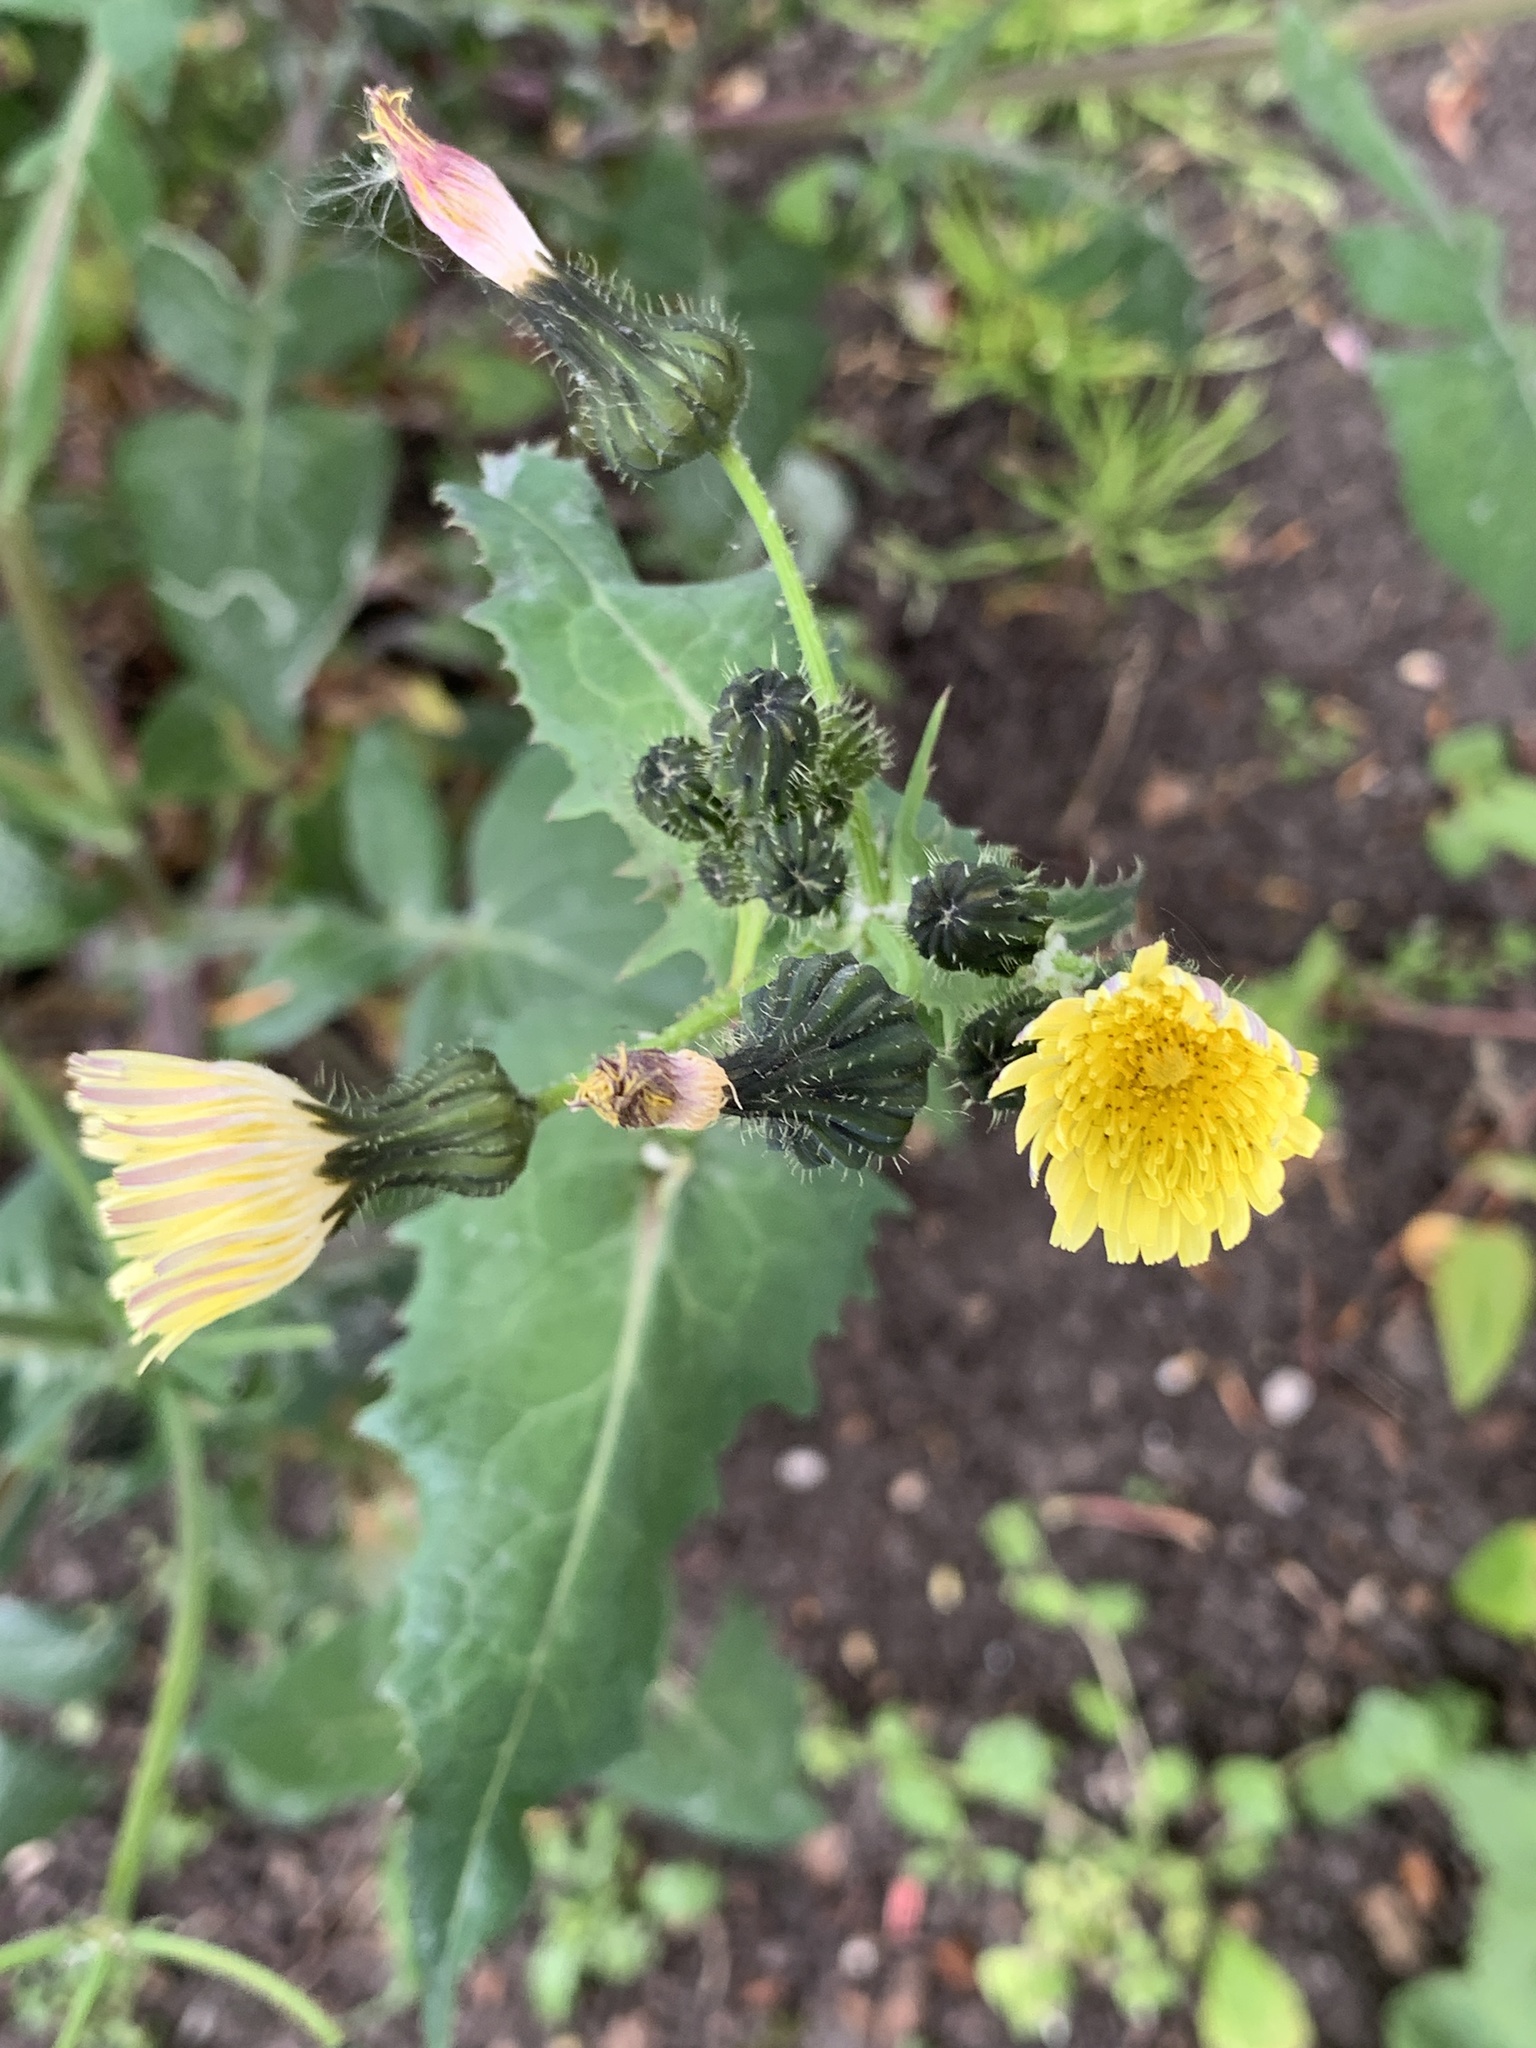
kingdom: Plantae
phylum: Tracheophyta
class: Magnoliopsida
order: Asterales
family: Asteraceae
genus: Sonchus
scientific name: Sonchus oleraceus
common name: Common sowthistle
